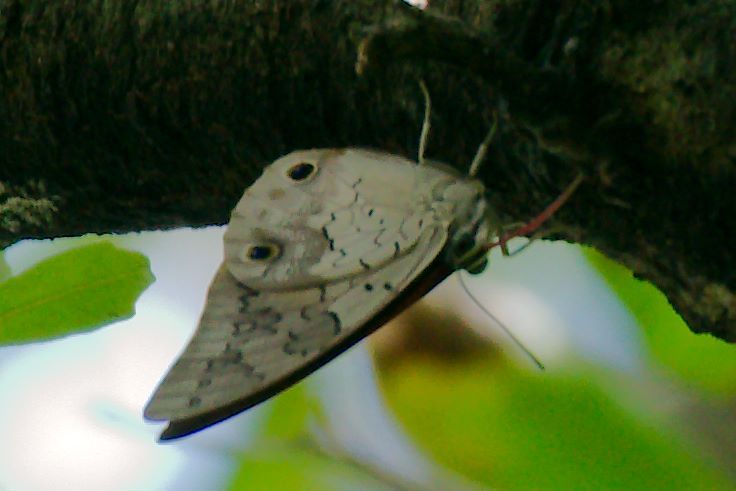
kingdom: Animalia
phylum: Arthropoda
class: Insecta
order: Lepidoptera
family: Nymphalidae
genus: Prepona
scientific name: Prepona laertes
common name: Butterfly
